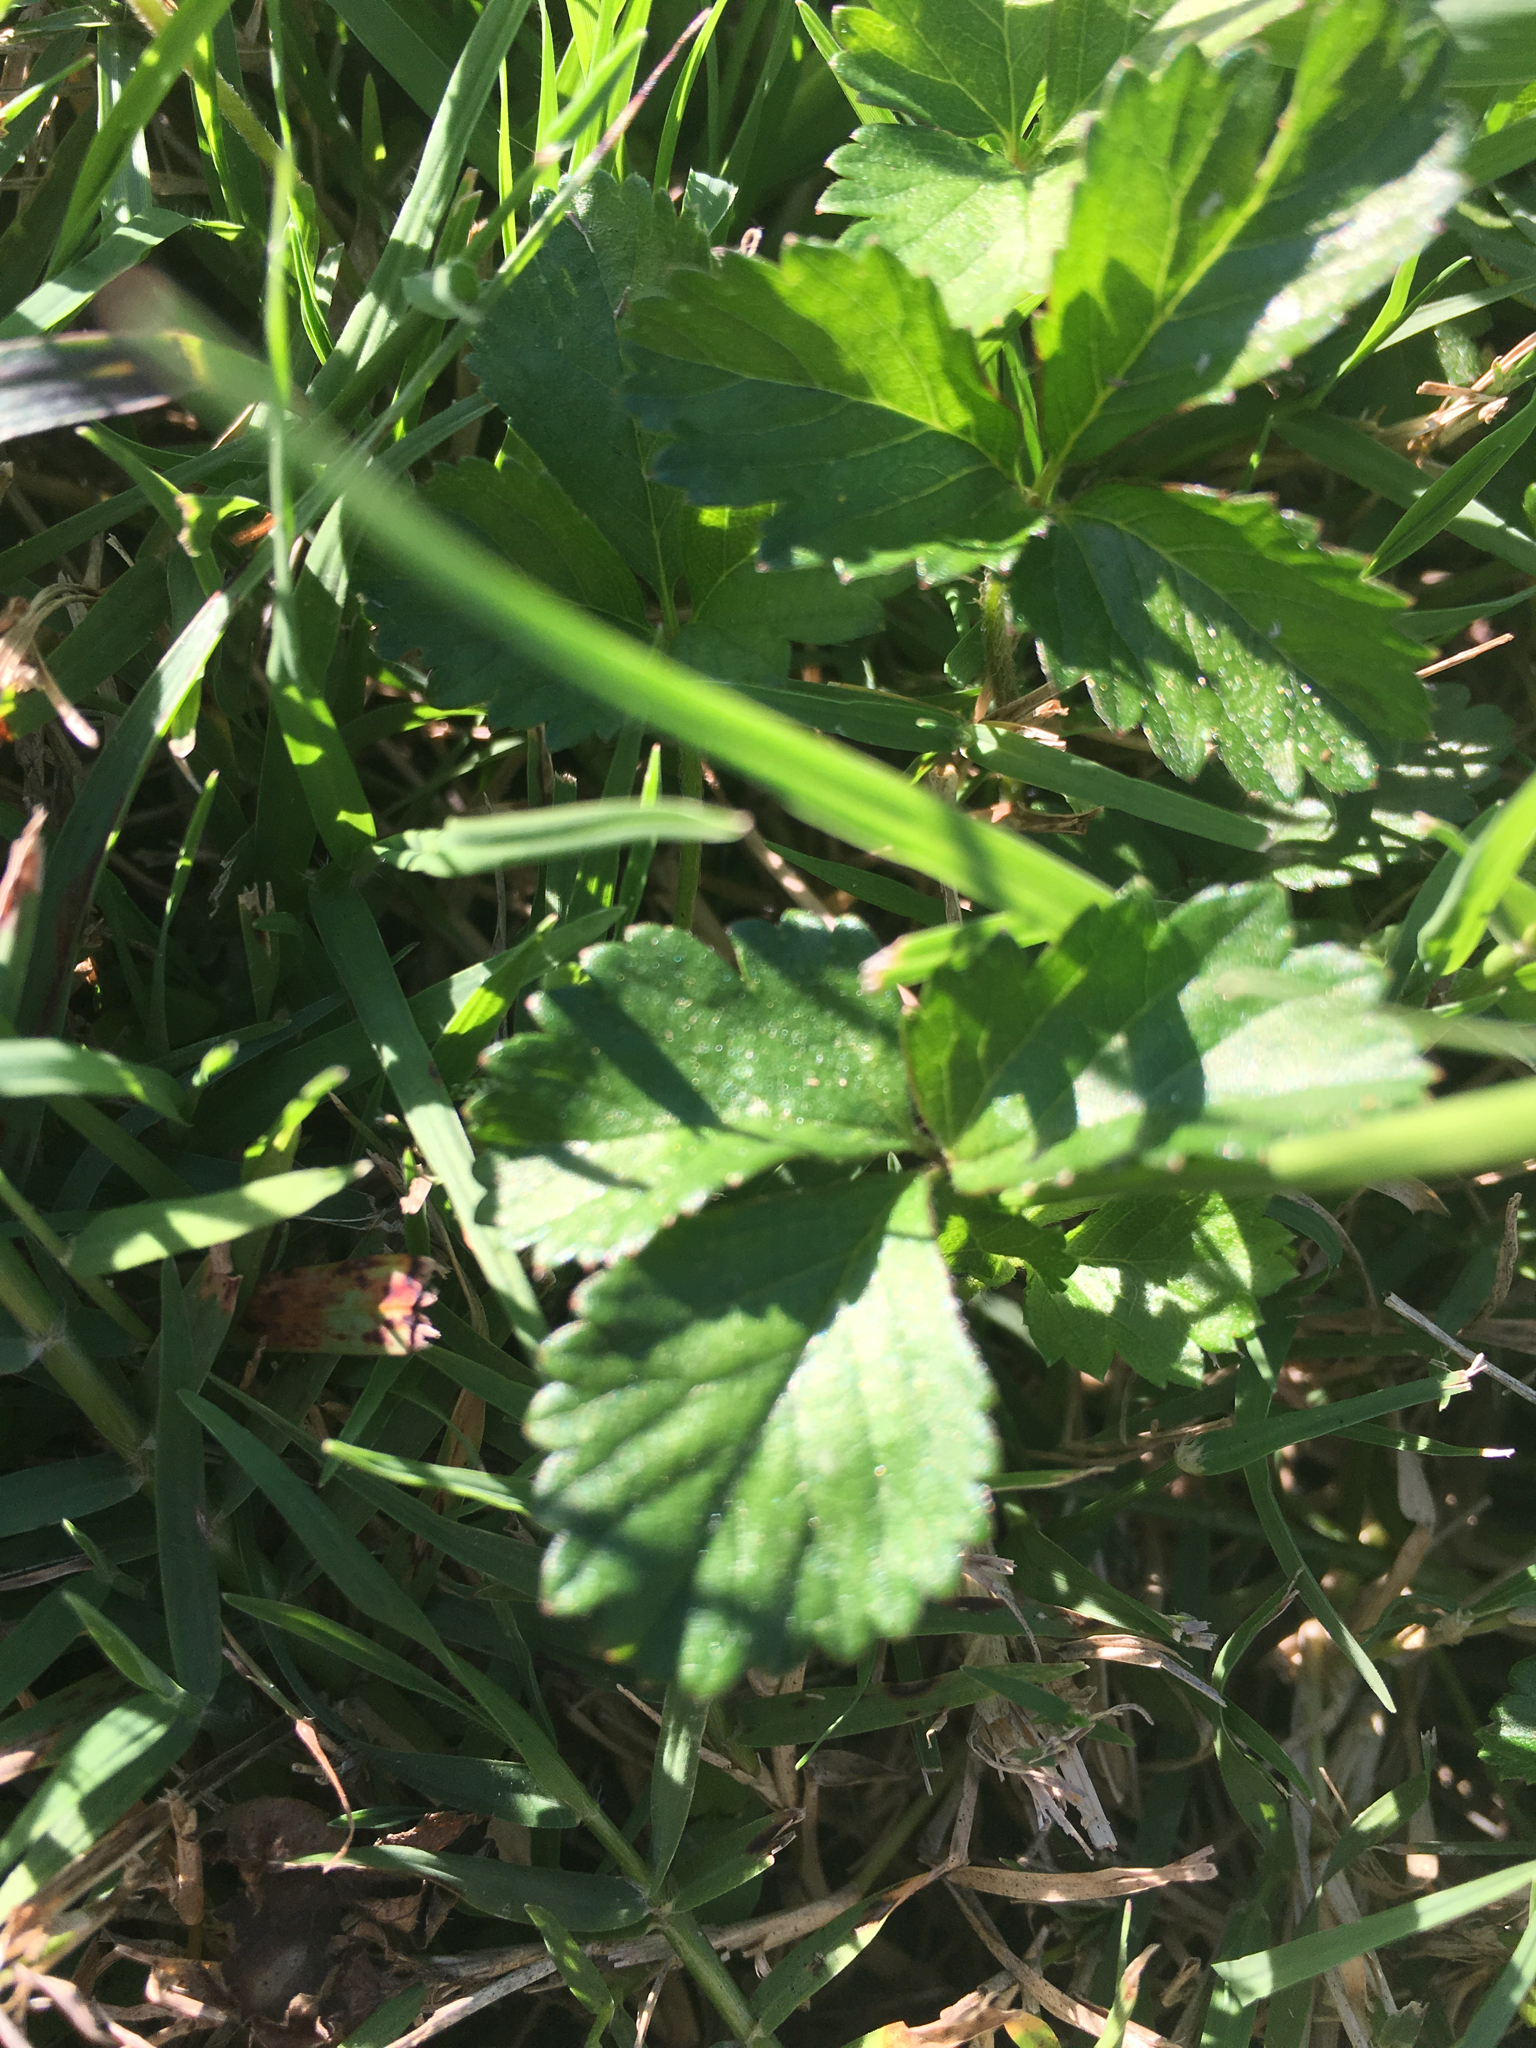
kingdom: Plantae
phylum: Tracheophyta
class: Magnoliopsida
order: Rosales
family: Rosaceae
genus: Potentilla
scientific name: Potentilla indica
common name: Yellow-flowered strawberry
